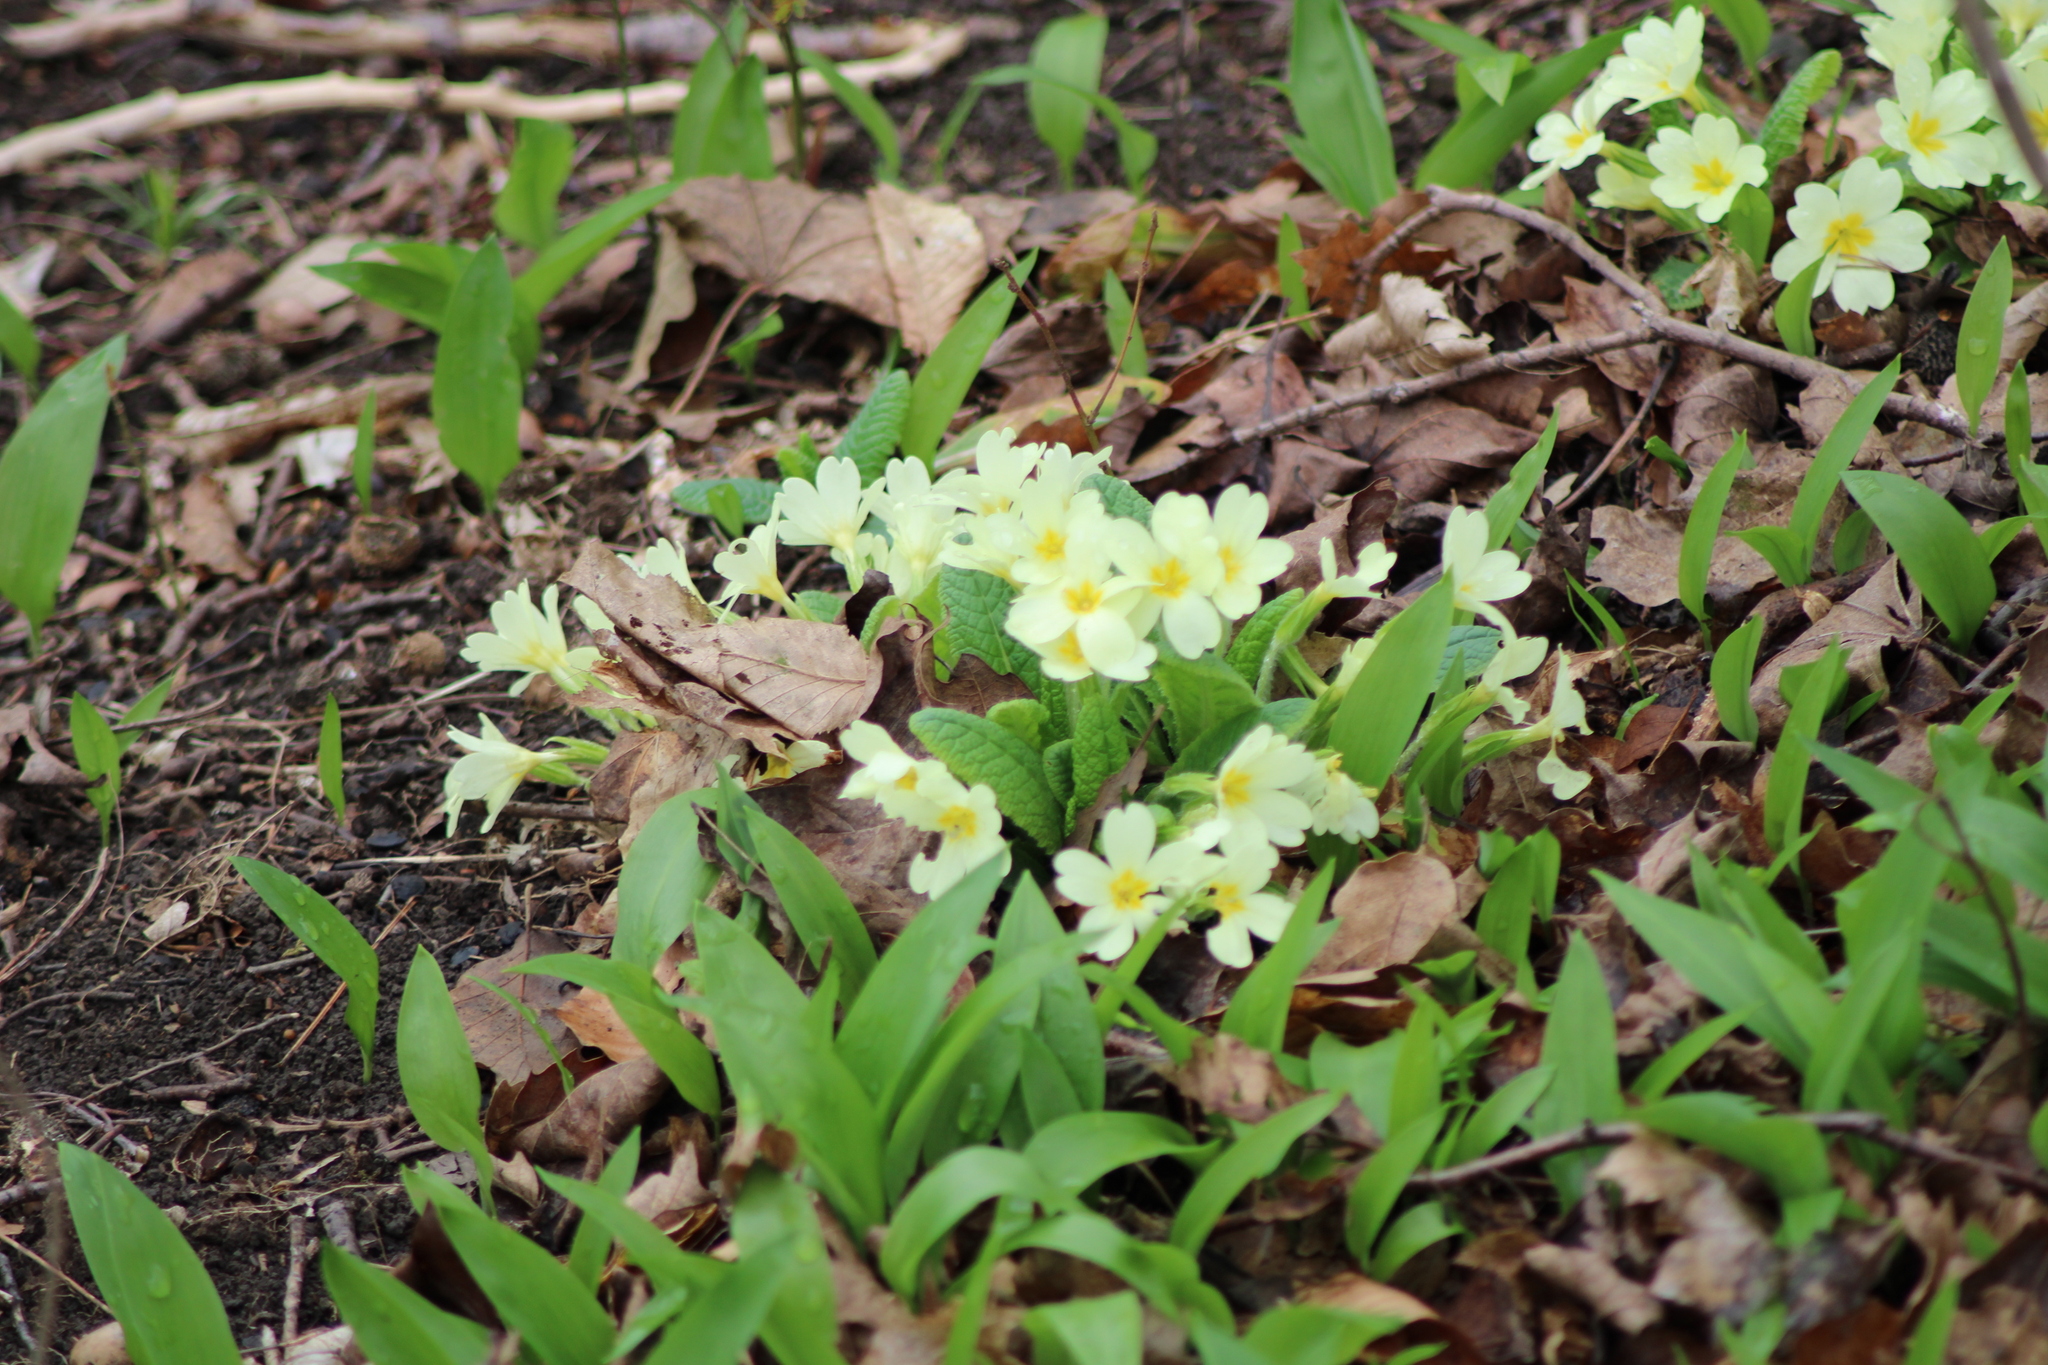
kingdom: Plantae
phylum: Tracheophyta
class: Magnoliopsida
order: Ericales
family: Primulaceae
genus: Primula
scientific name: Primula vulgaris
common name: Primrose
